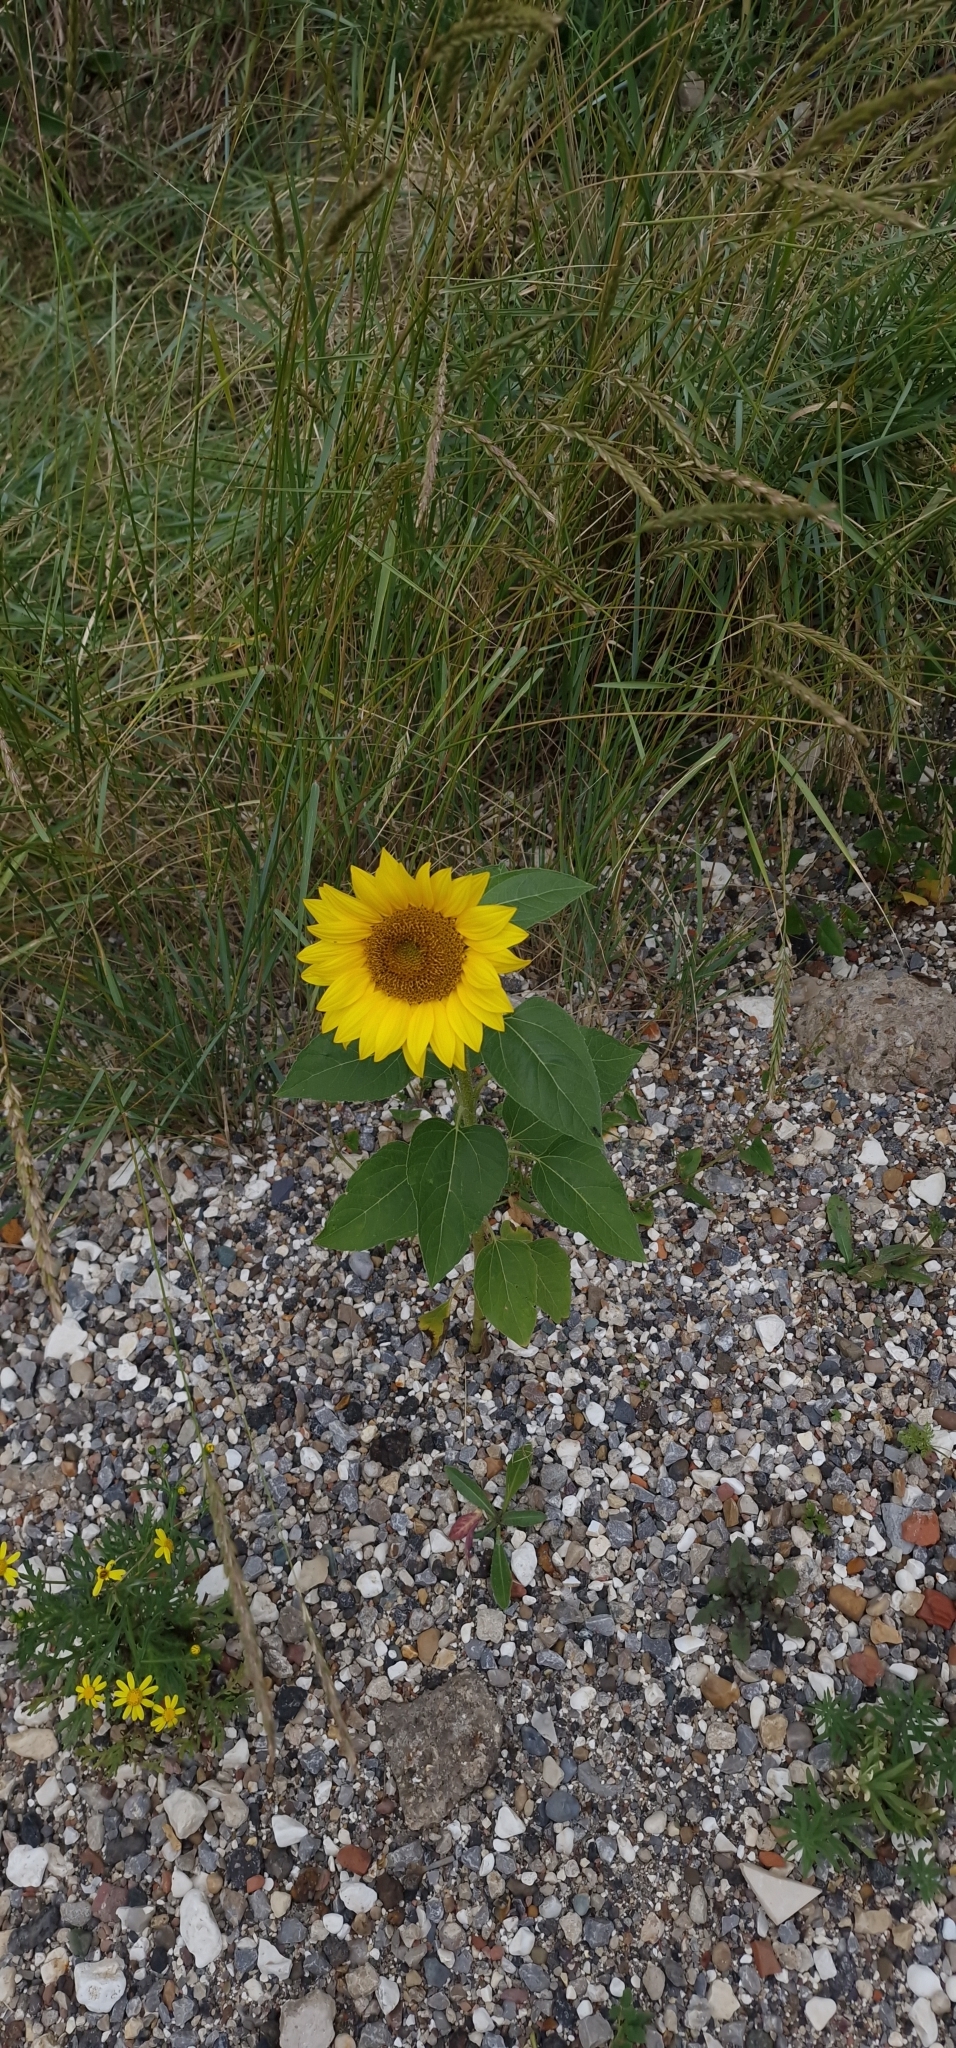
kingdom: Plantae
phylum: Tracheophyta
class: Magnoliopsida
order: Asterales
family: Asteraceae
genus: Helianthus
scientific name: Helianthus annuus
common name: Sunflower
